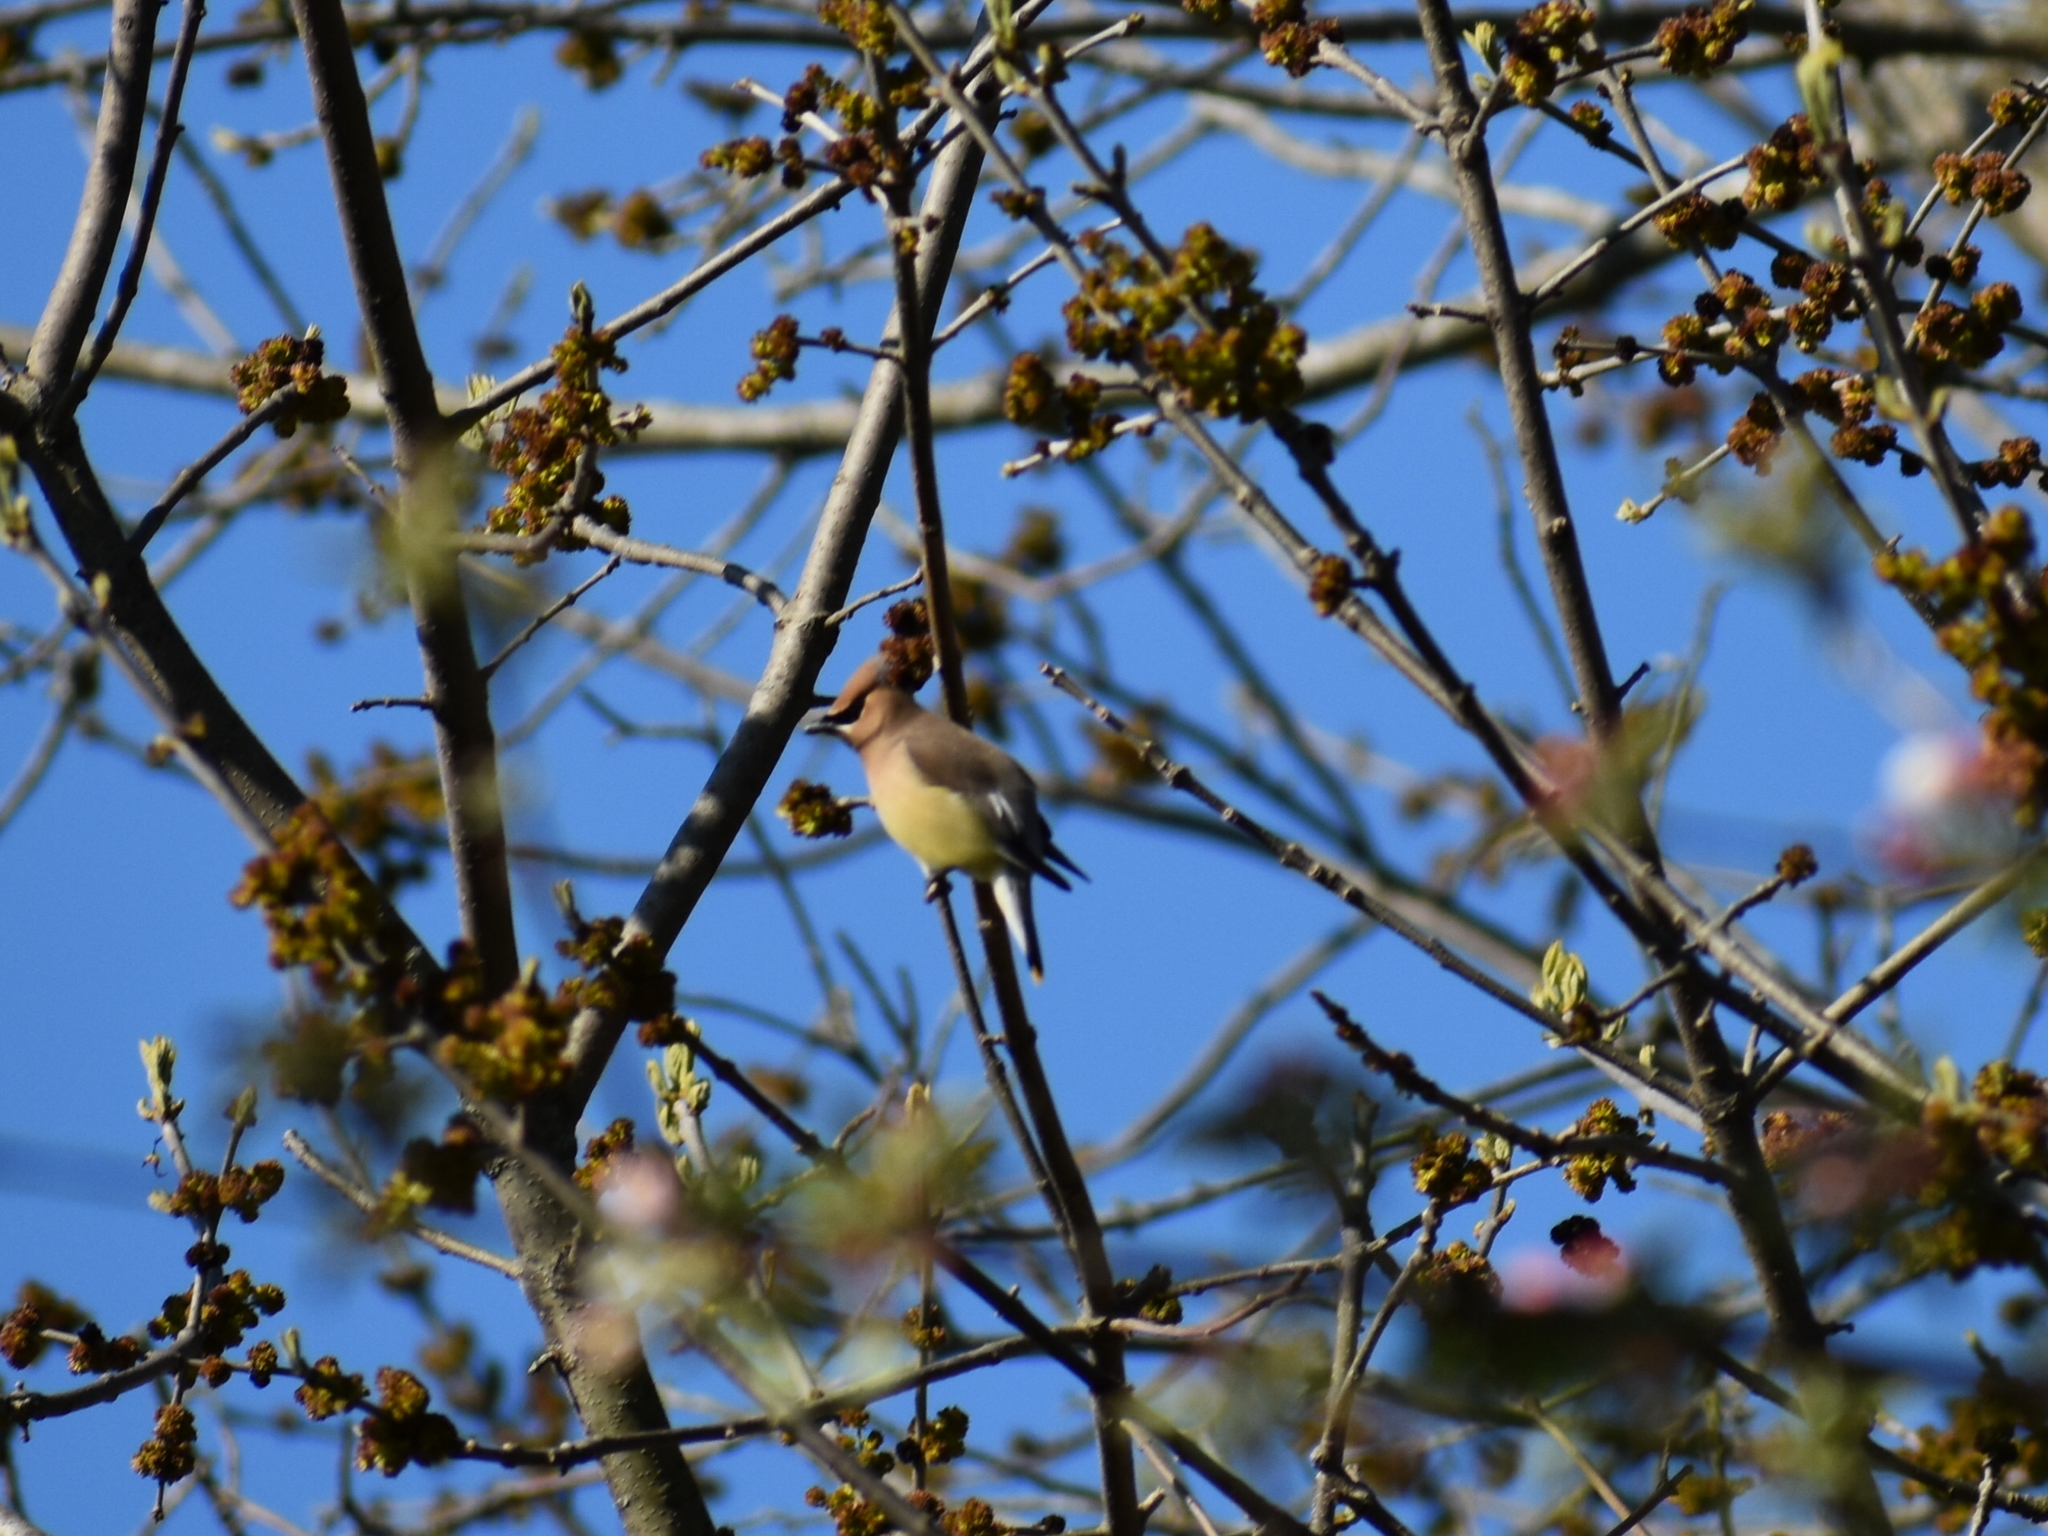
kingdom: Animalia
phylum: Chordata
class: Aves
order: Passeriformes
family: Bombycillidae
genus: Bombycilla
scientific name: Bombycilla cedrorum
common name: Cedar waxwing
